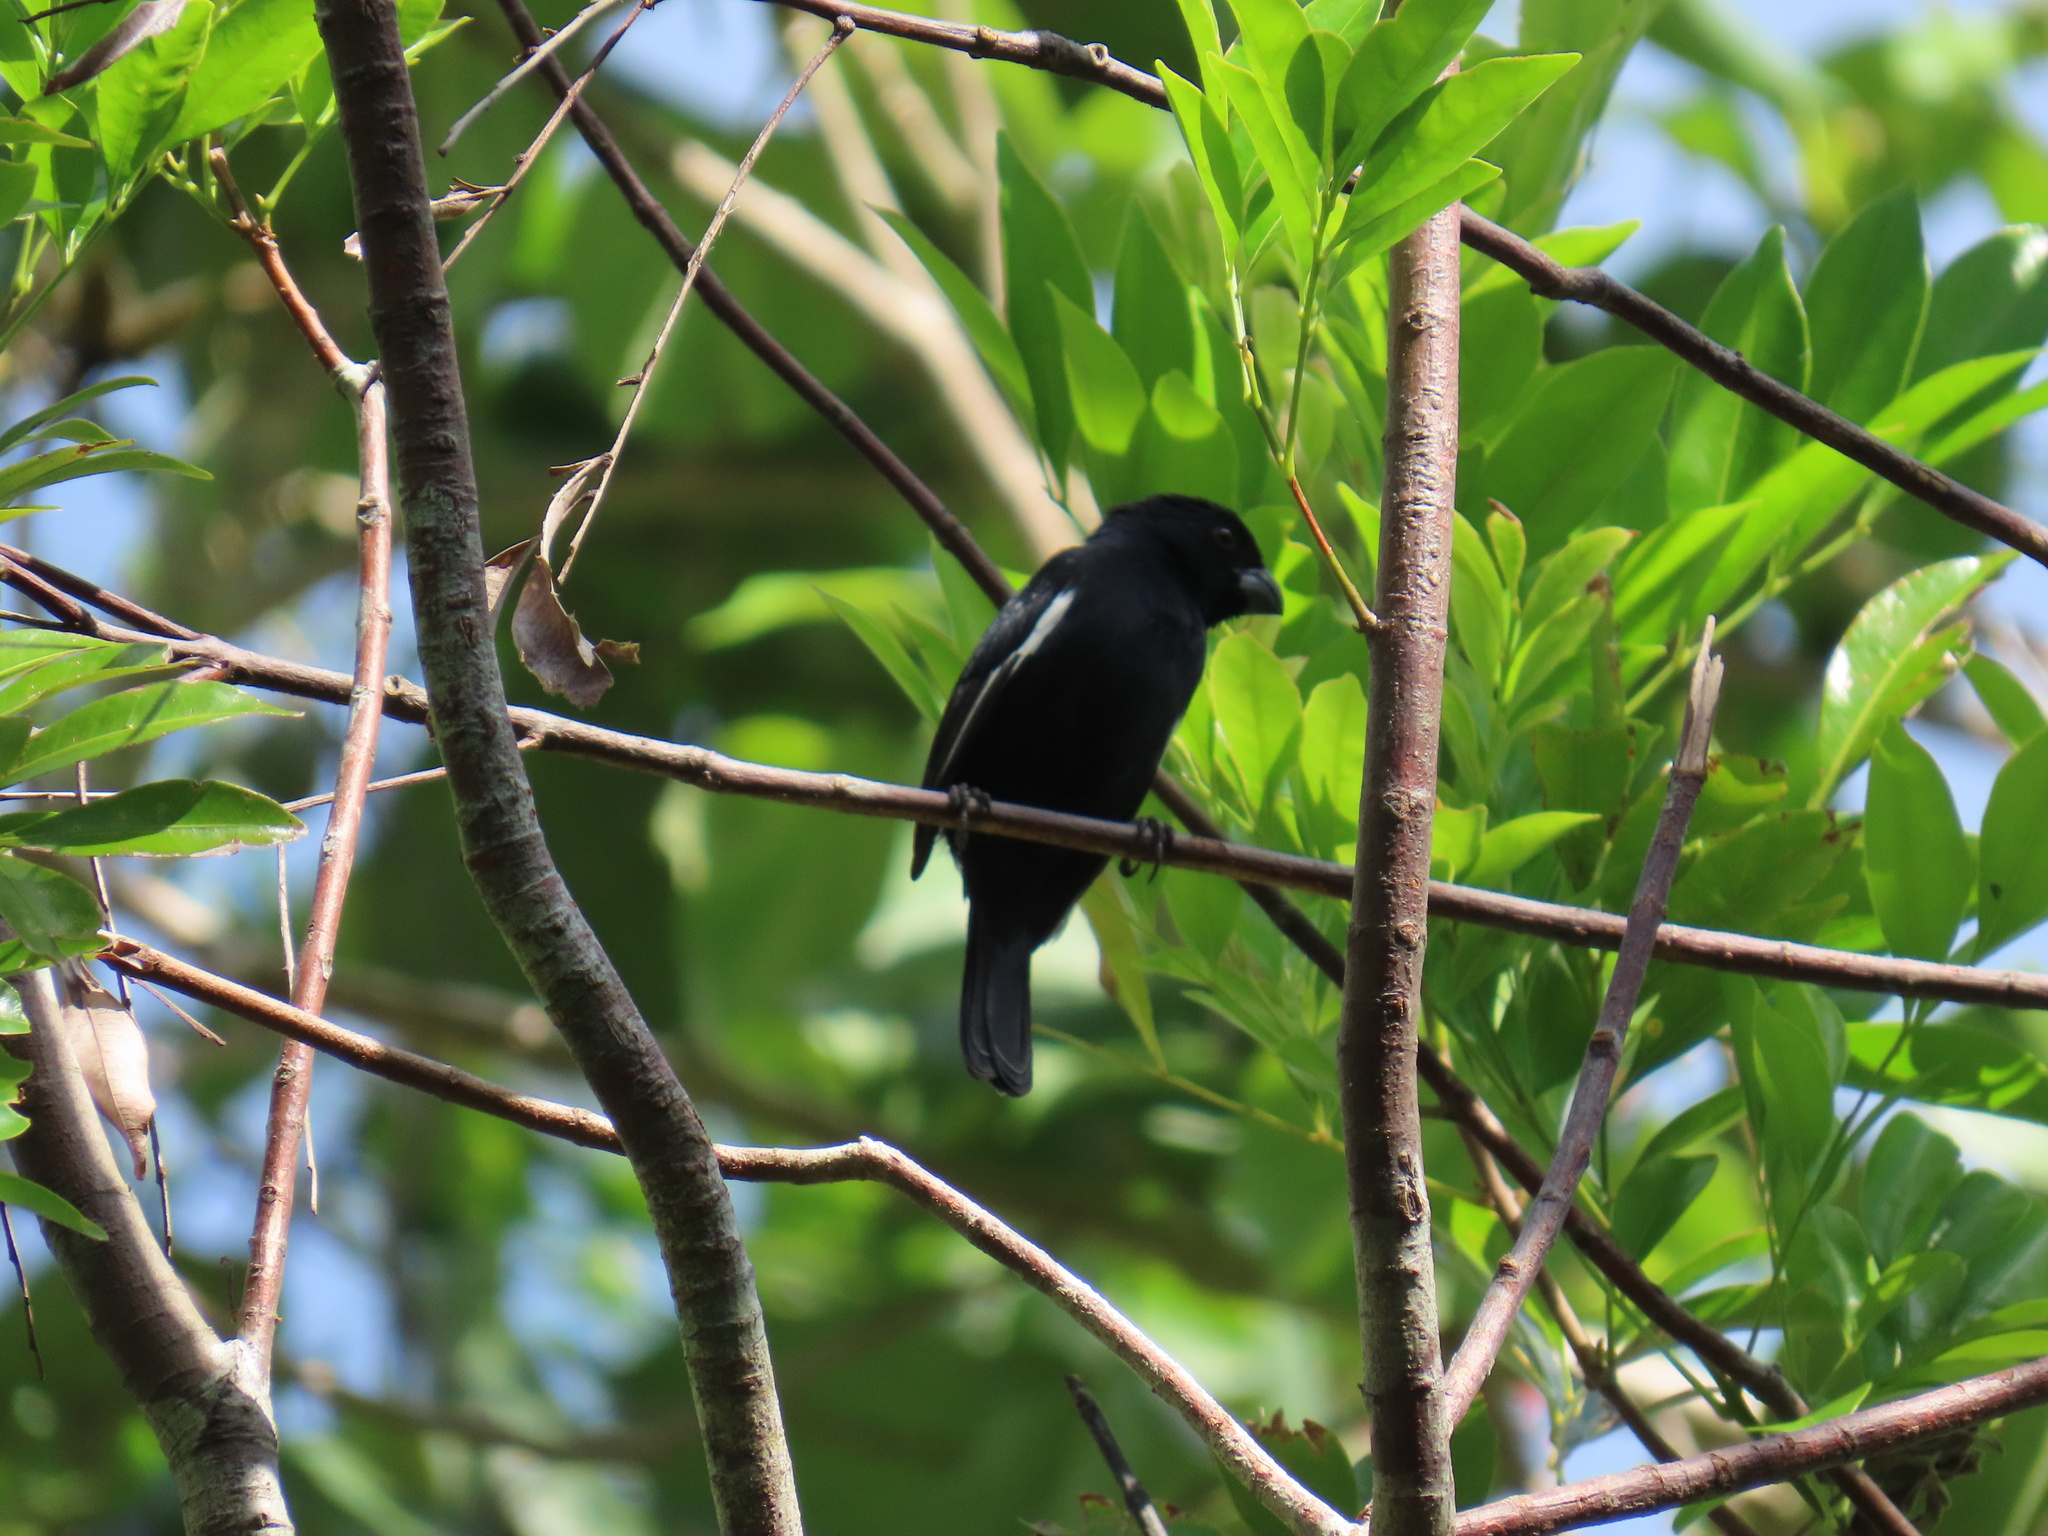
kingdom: Animalia
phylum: Chordata
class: Aves
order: Passeriformes
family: Thraupidae
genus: Melopyrrha
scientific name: Melopyrrha nigra
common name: Cuban bullfinch
